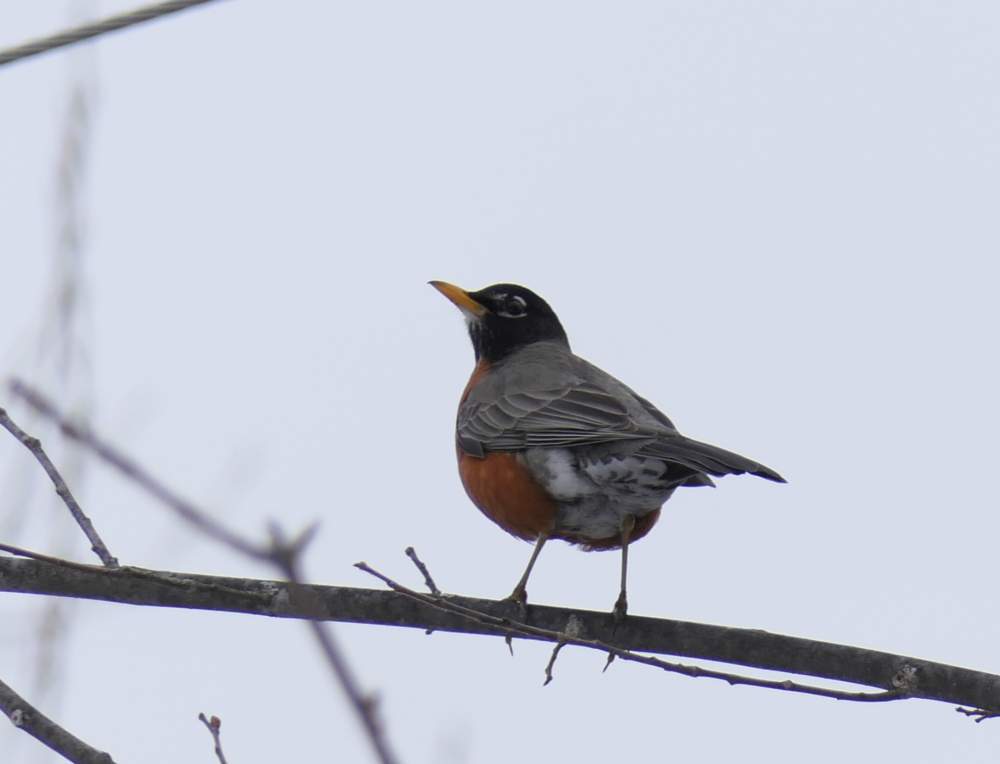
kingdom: Animalia
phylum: Chordata
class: Aves
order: Passeriformes
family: Turdidae
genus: Turdus
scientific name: Turdus migratorius
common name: American robin
